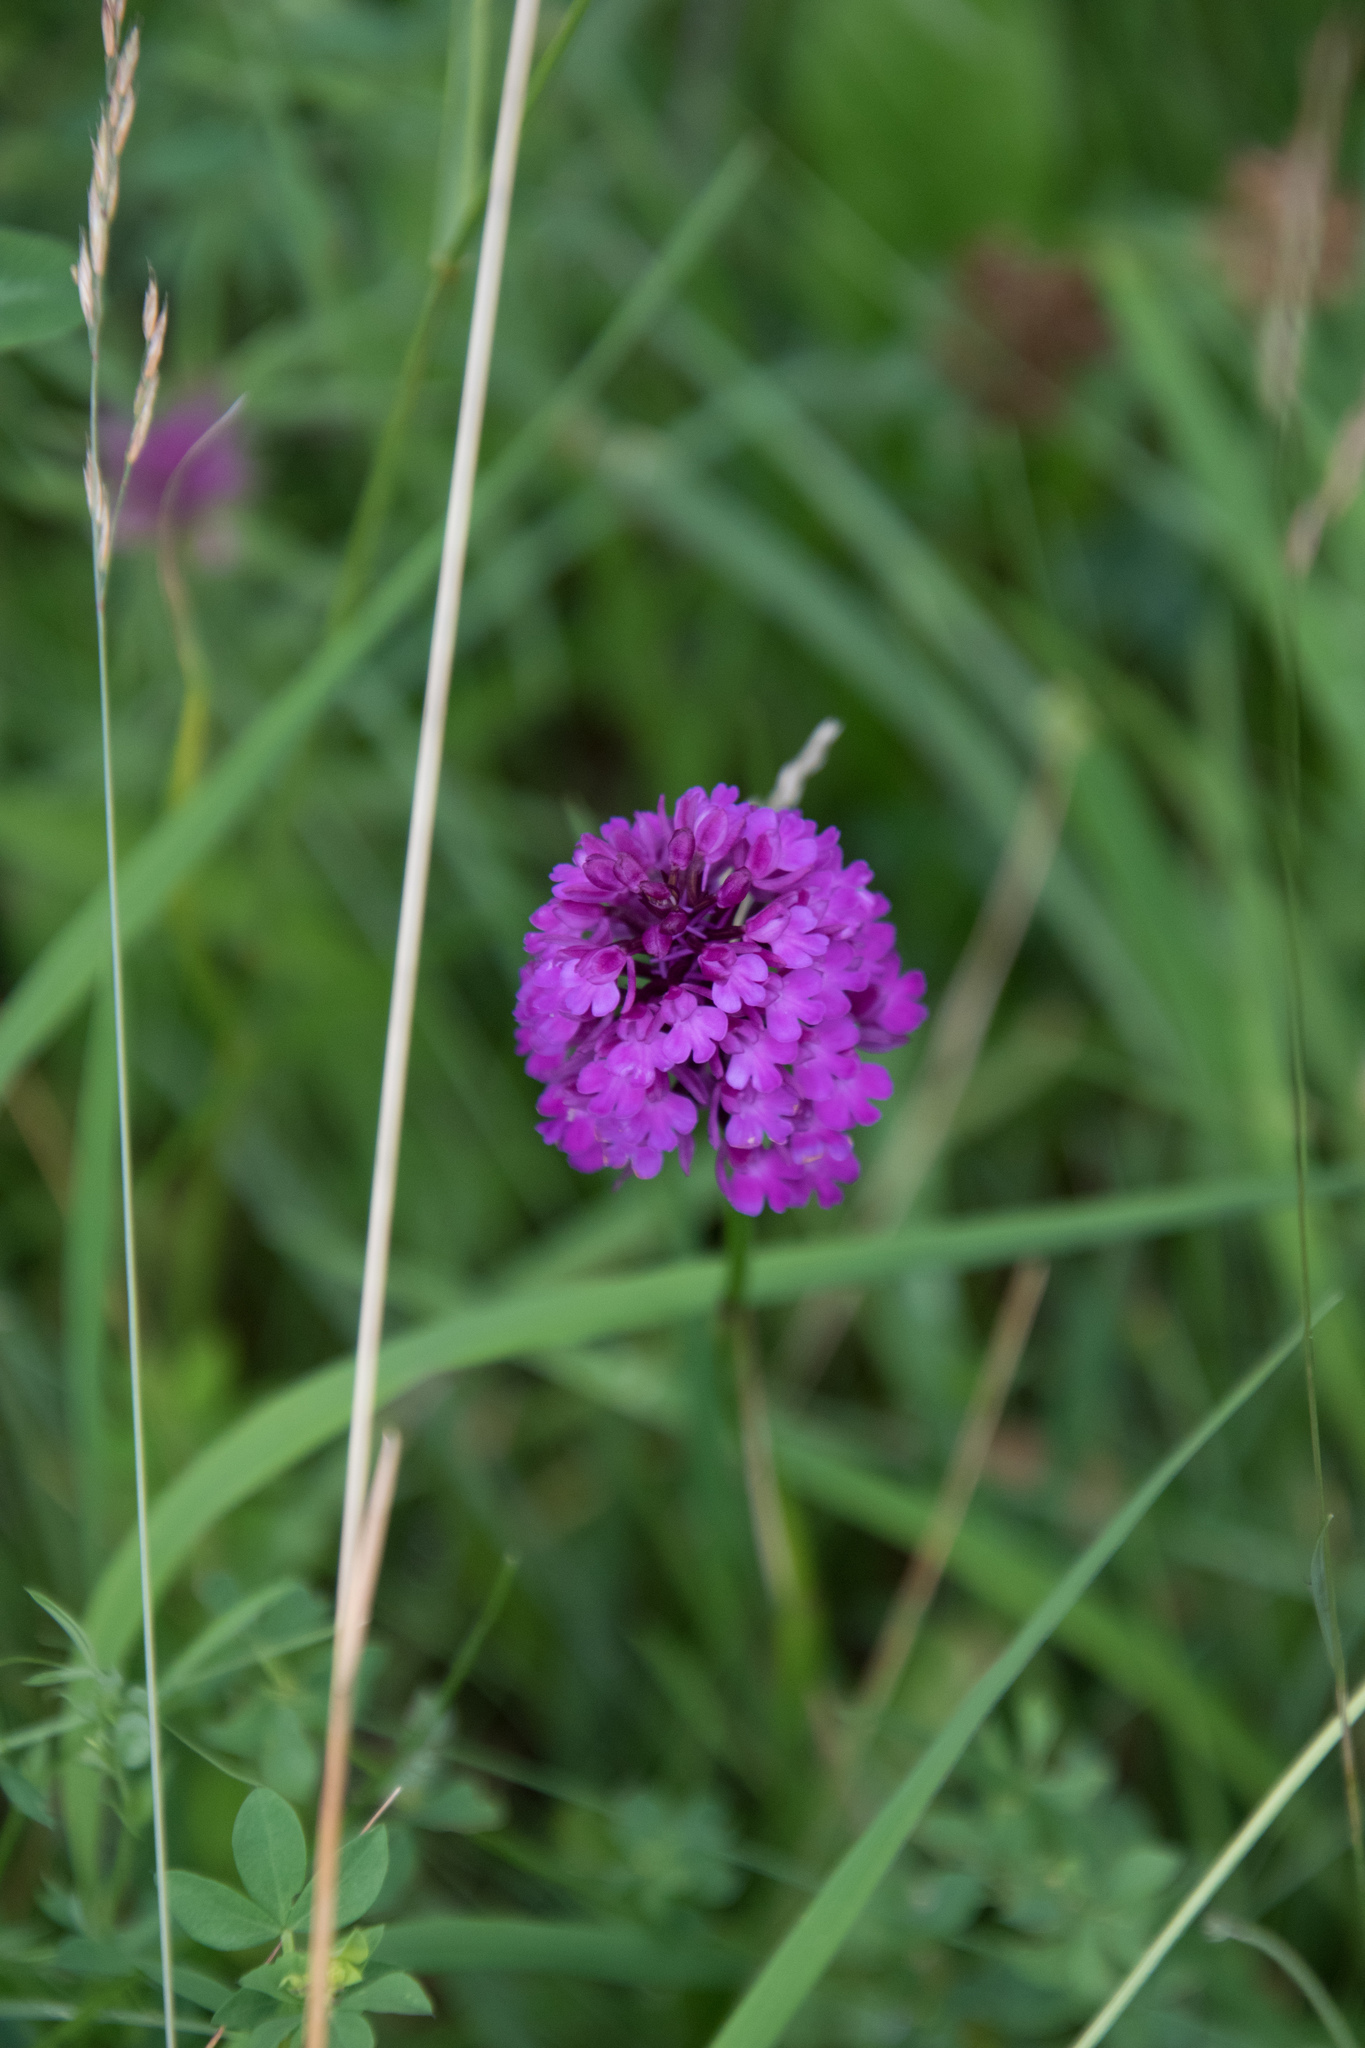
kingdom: Plantae
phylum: Tracheophyta
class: Liliopsida
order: Asparagales
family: Orchidaceae
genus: Anacamptis
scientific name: Anacamptis pyramidalis
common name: Pyramidal orchid
